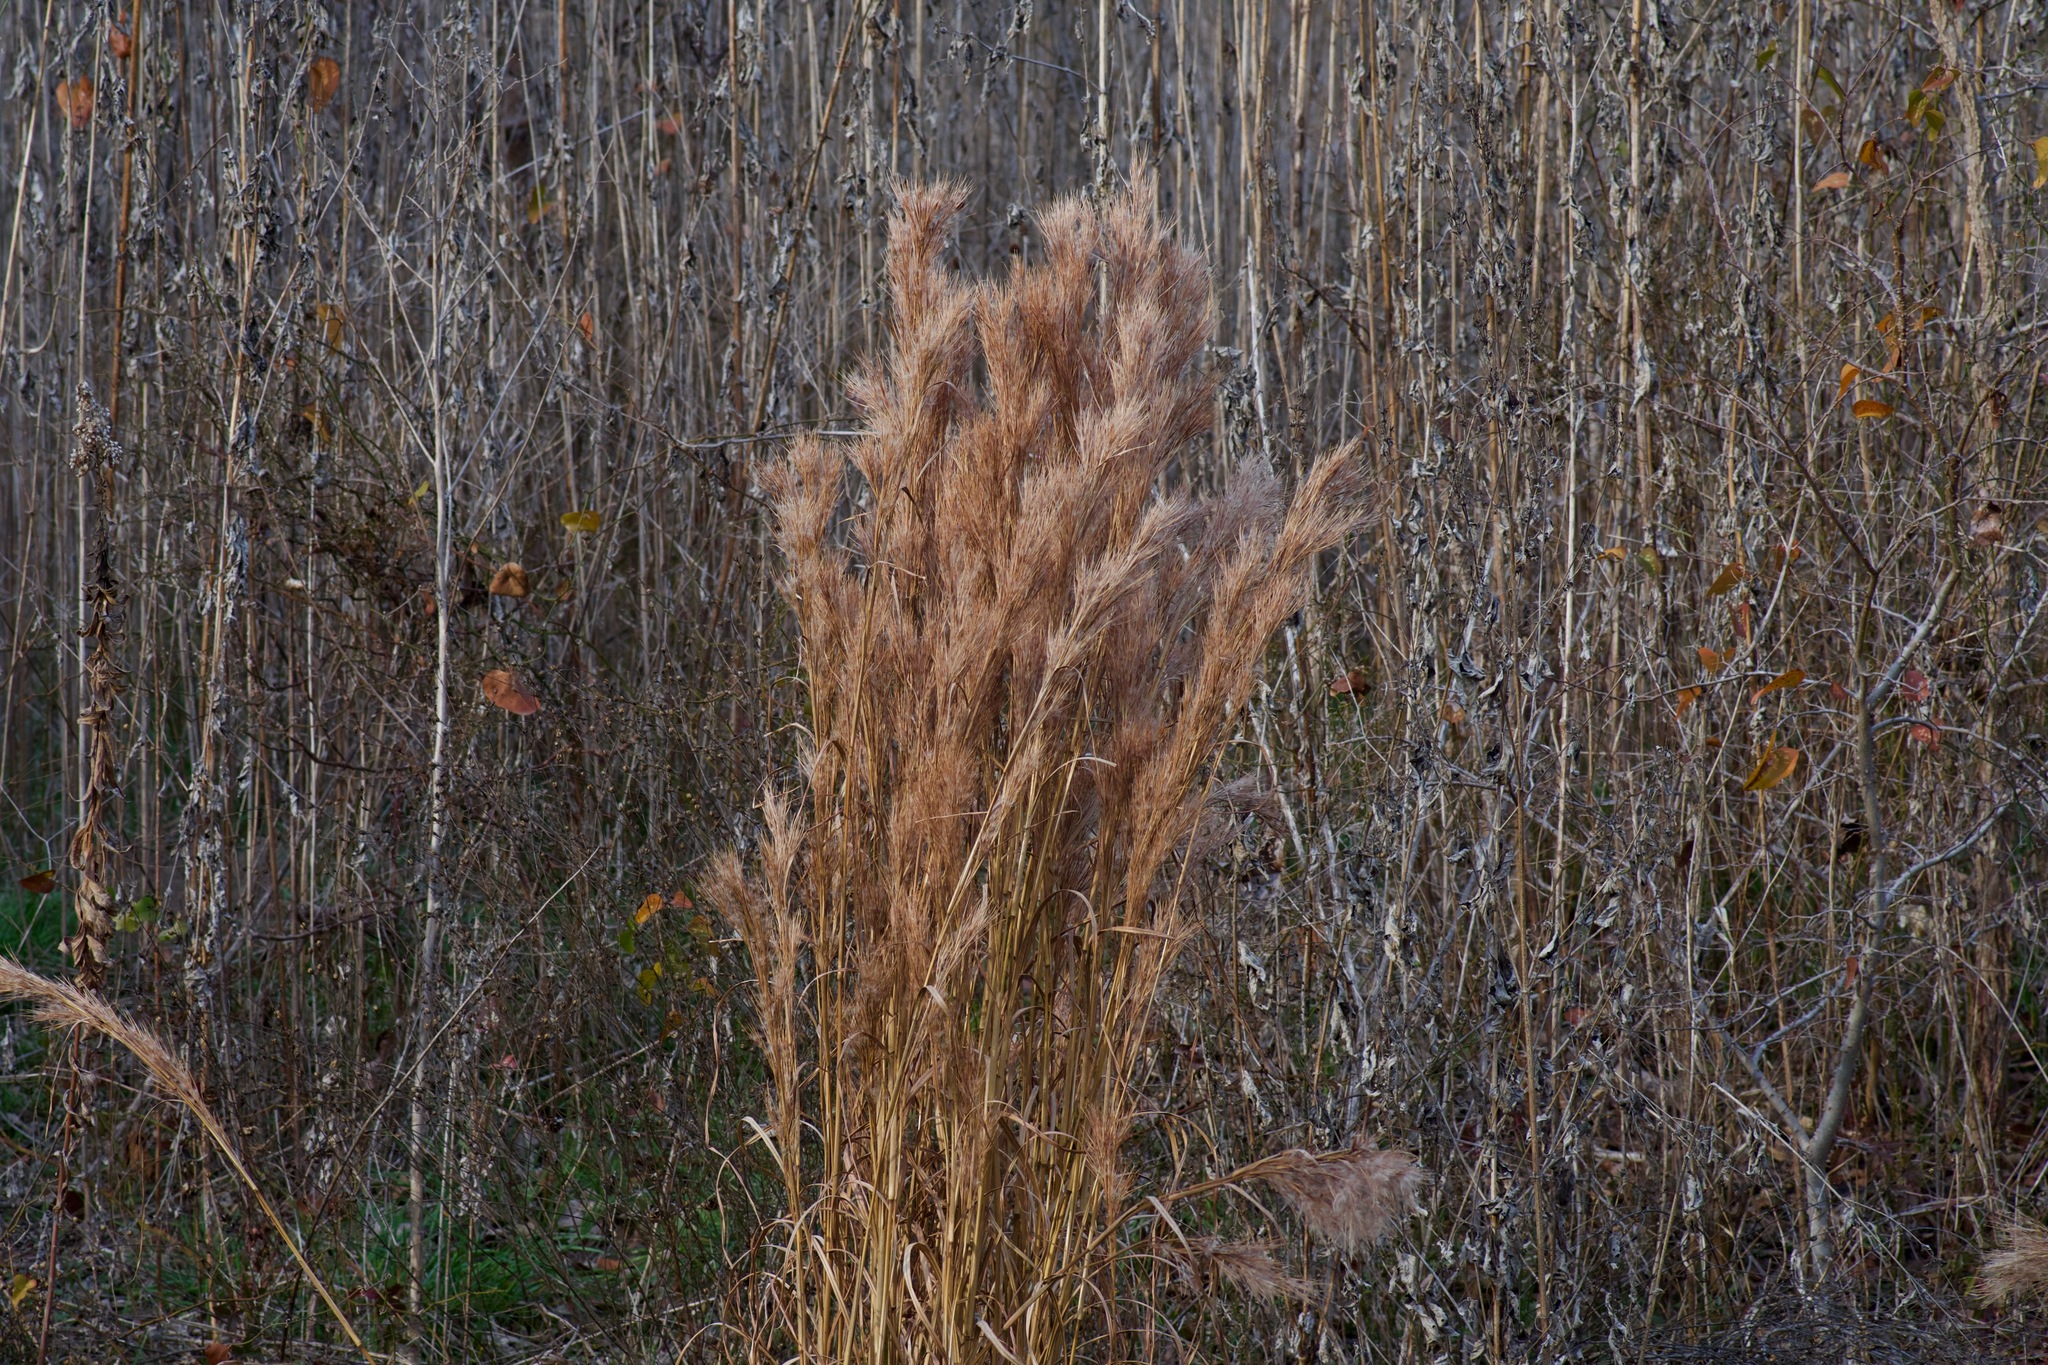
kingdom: Plantae
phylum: Tracheophyta
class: Liliopsida
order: Poales
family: Poaceae
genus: Andropogon
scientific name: Andropogon tenuispatheus
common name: Bushy bluestem
